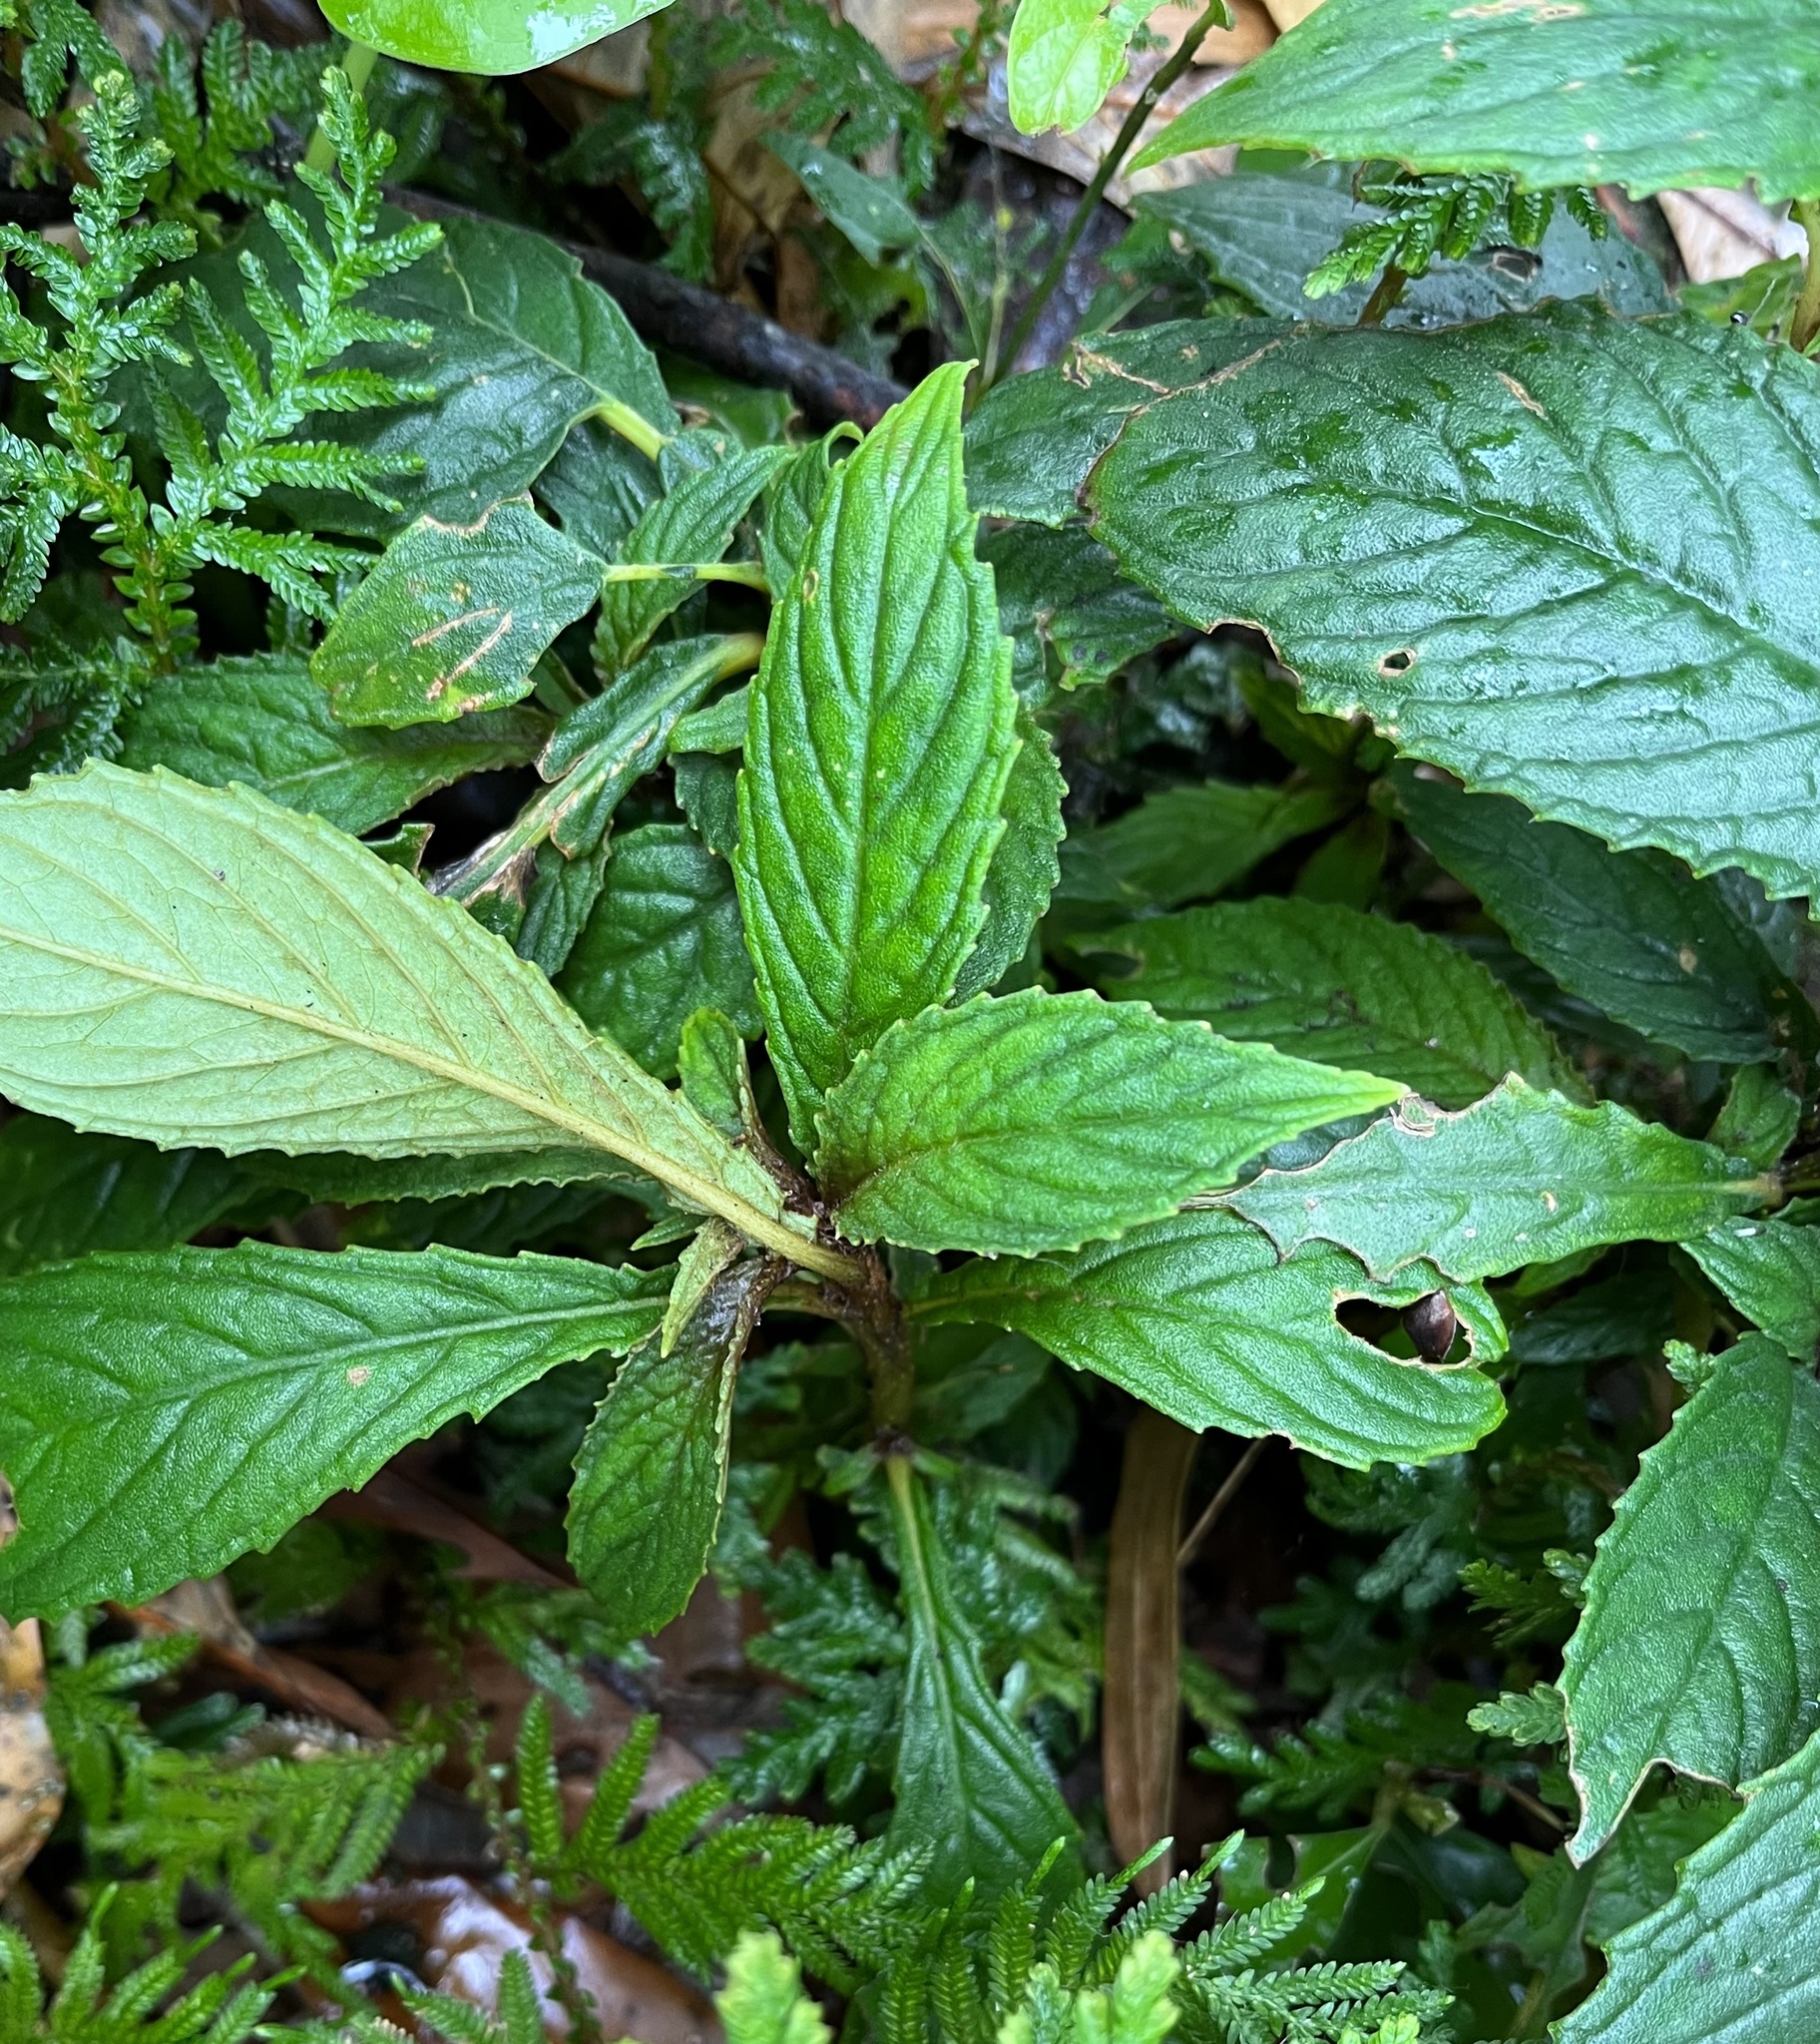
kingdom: Plantae
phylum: Tracheophyta
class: Magnoliopsida
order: Lamiales
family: Gesneriaceae
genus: Rhynchotechum
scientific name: Rhynchotechum discolor
